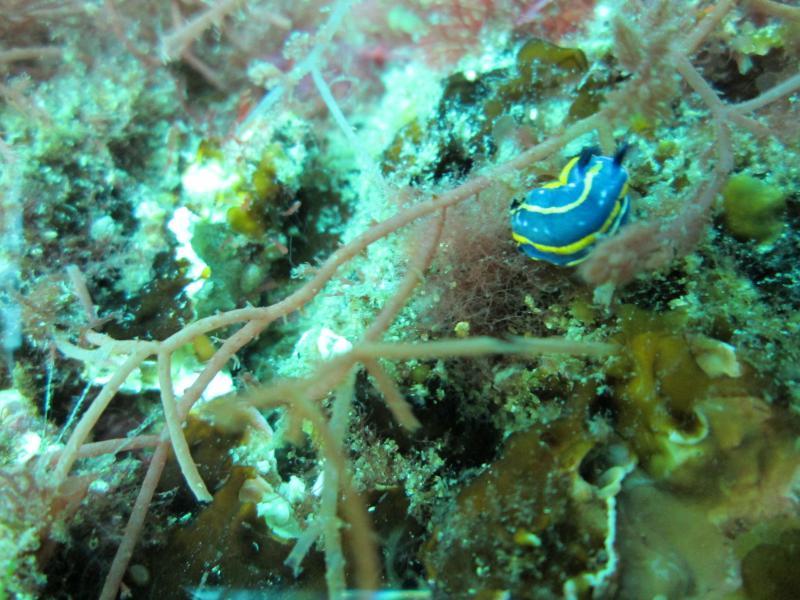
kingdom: Animalia
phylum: Mollusca
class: Gastropoda
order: Nudibranchia
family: Chromodorididae
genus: Felimare
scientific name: Felimare tricolor
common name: Tricolor doris
